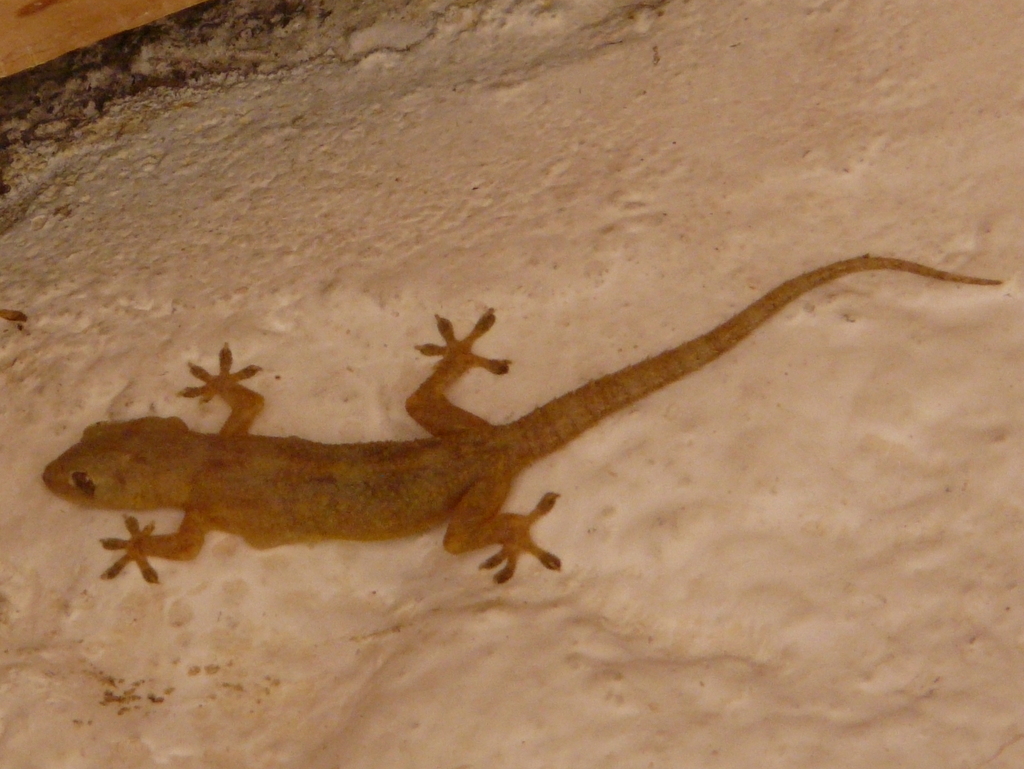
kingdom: Animalia
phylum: Chordata
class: Squamata
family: Gekkonidae
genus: Hemidactylus
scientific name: Hemidactylus mabouia
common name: House gecko
